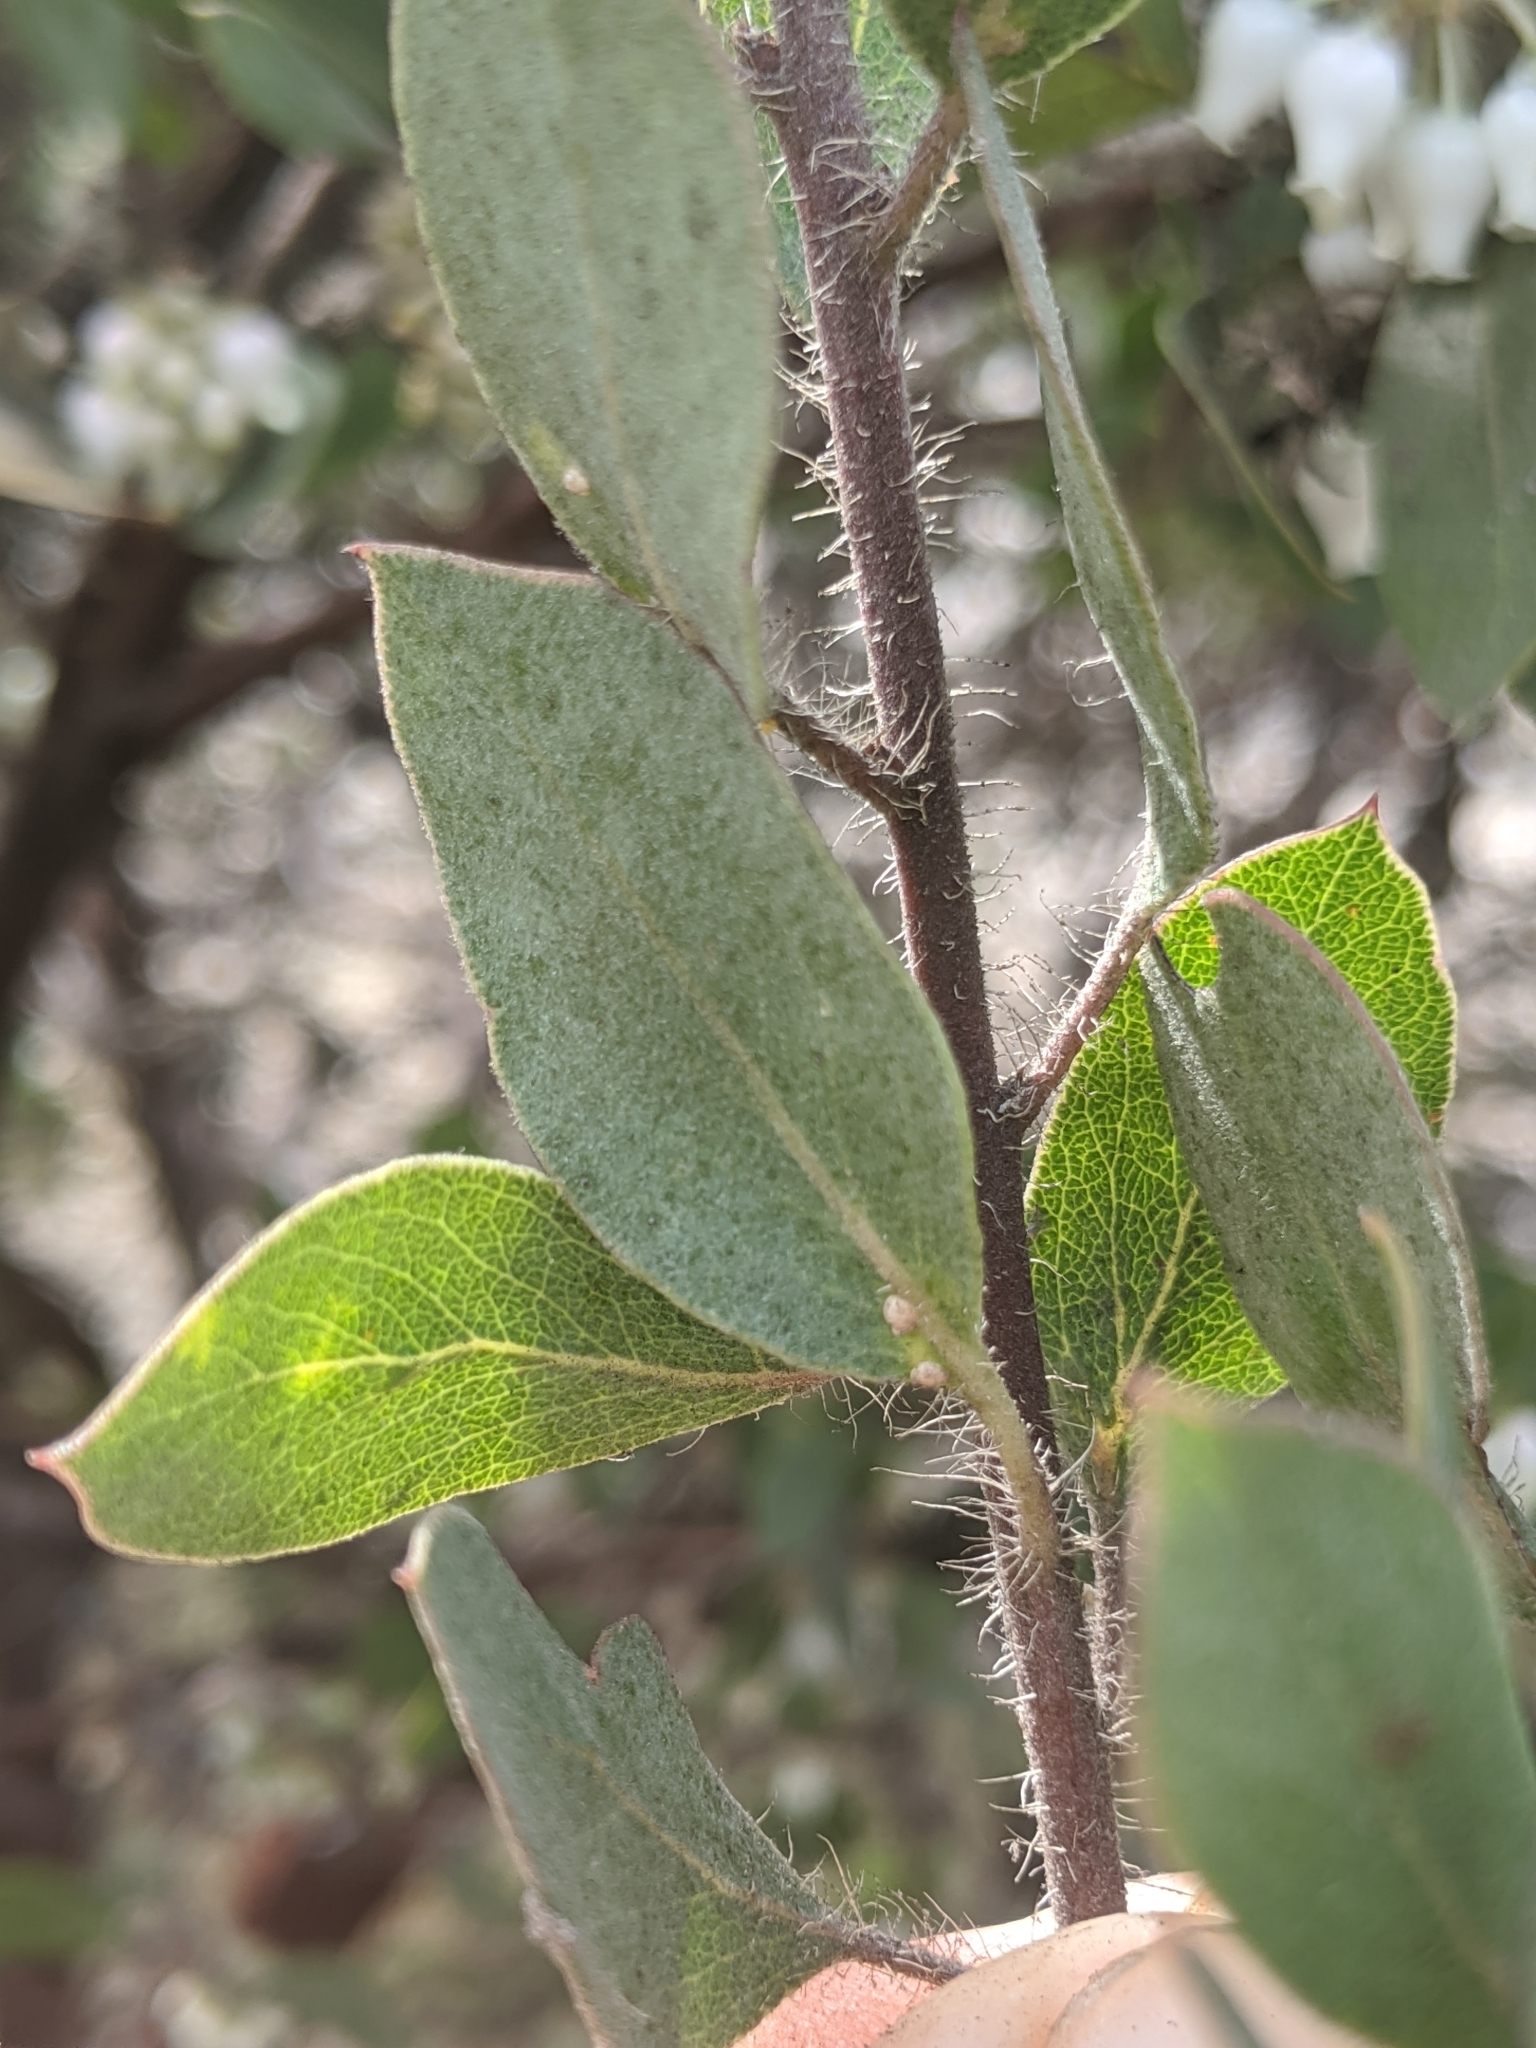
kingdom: Plantae
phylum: Tracheophyta
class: Magnoliopsida
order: Ericales
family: Ericaceae
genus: Arctostaphylos
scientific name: Arctostaphylos pilosula
